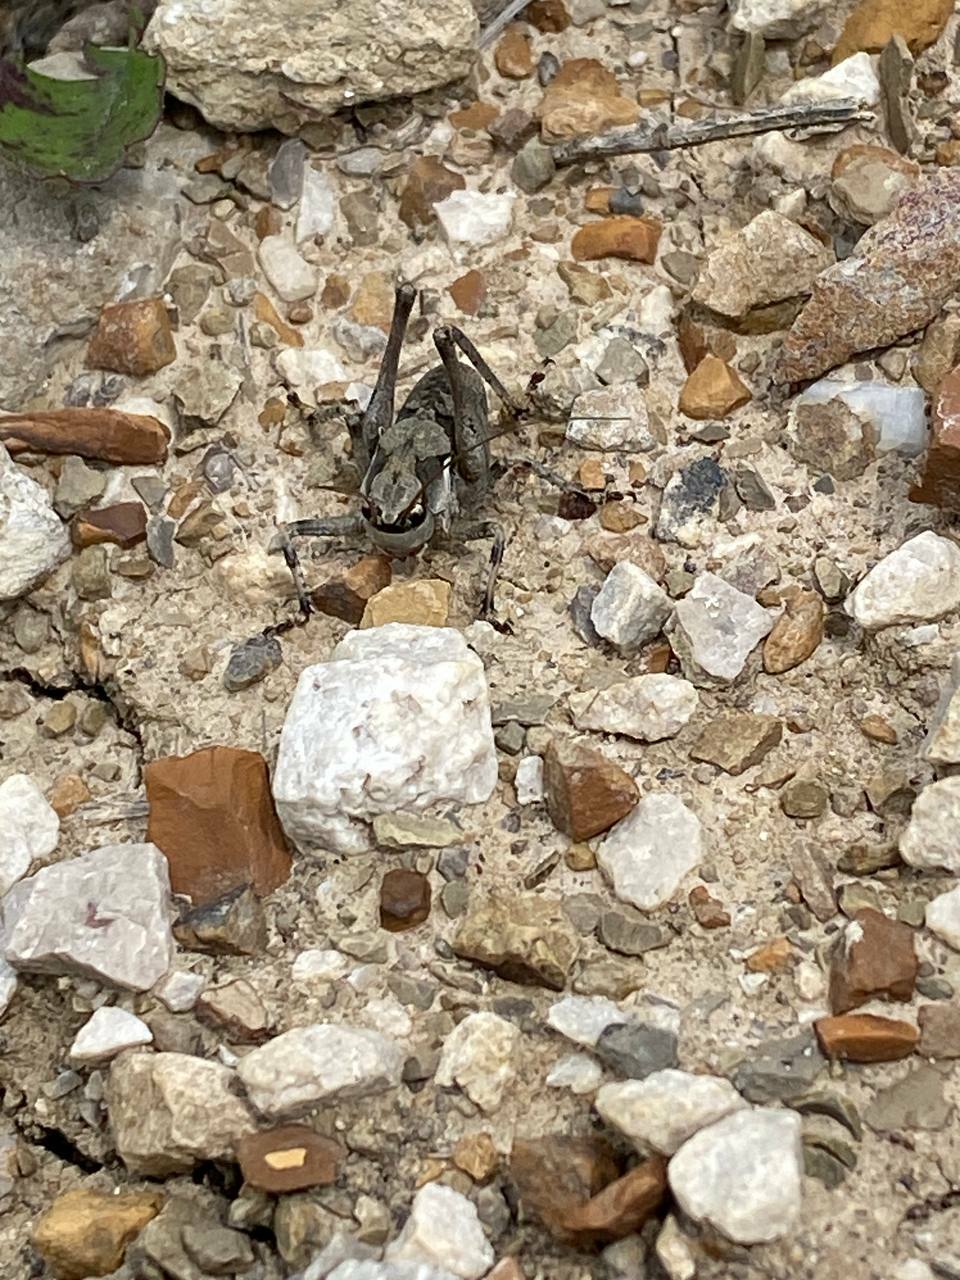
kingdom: Animalia
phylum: Arthropoda
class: Insecta
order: Orthoptera
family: Tettigoniidae
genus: Pholidoptera
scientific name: Pholidoptera pustulipes
